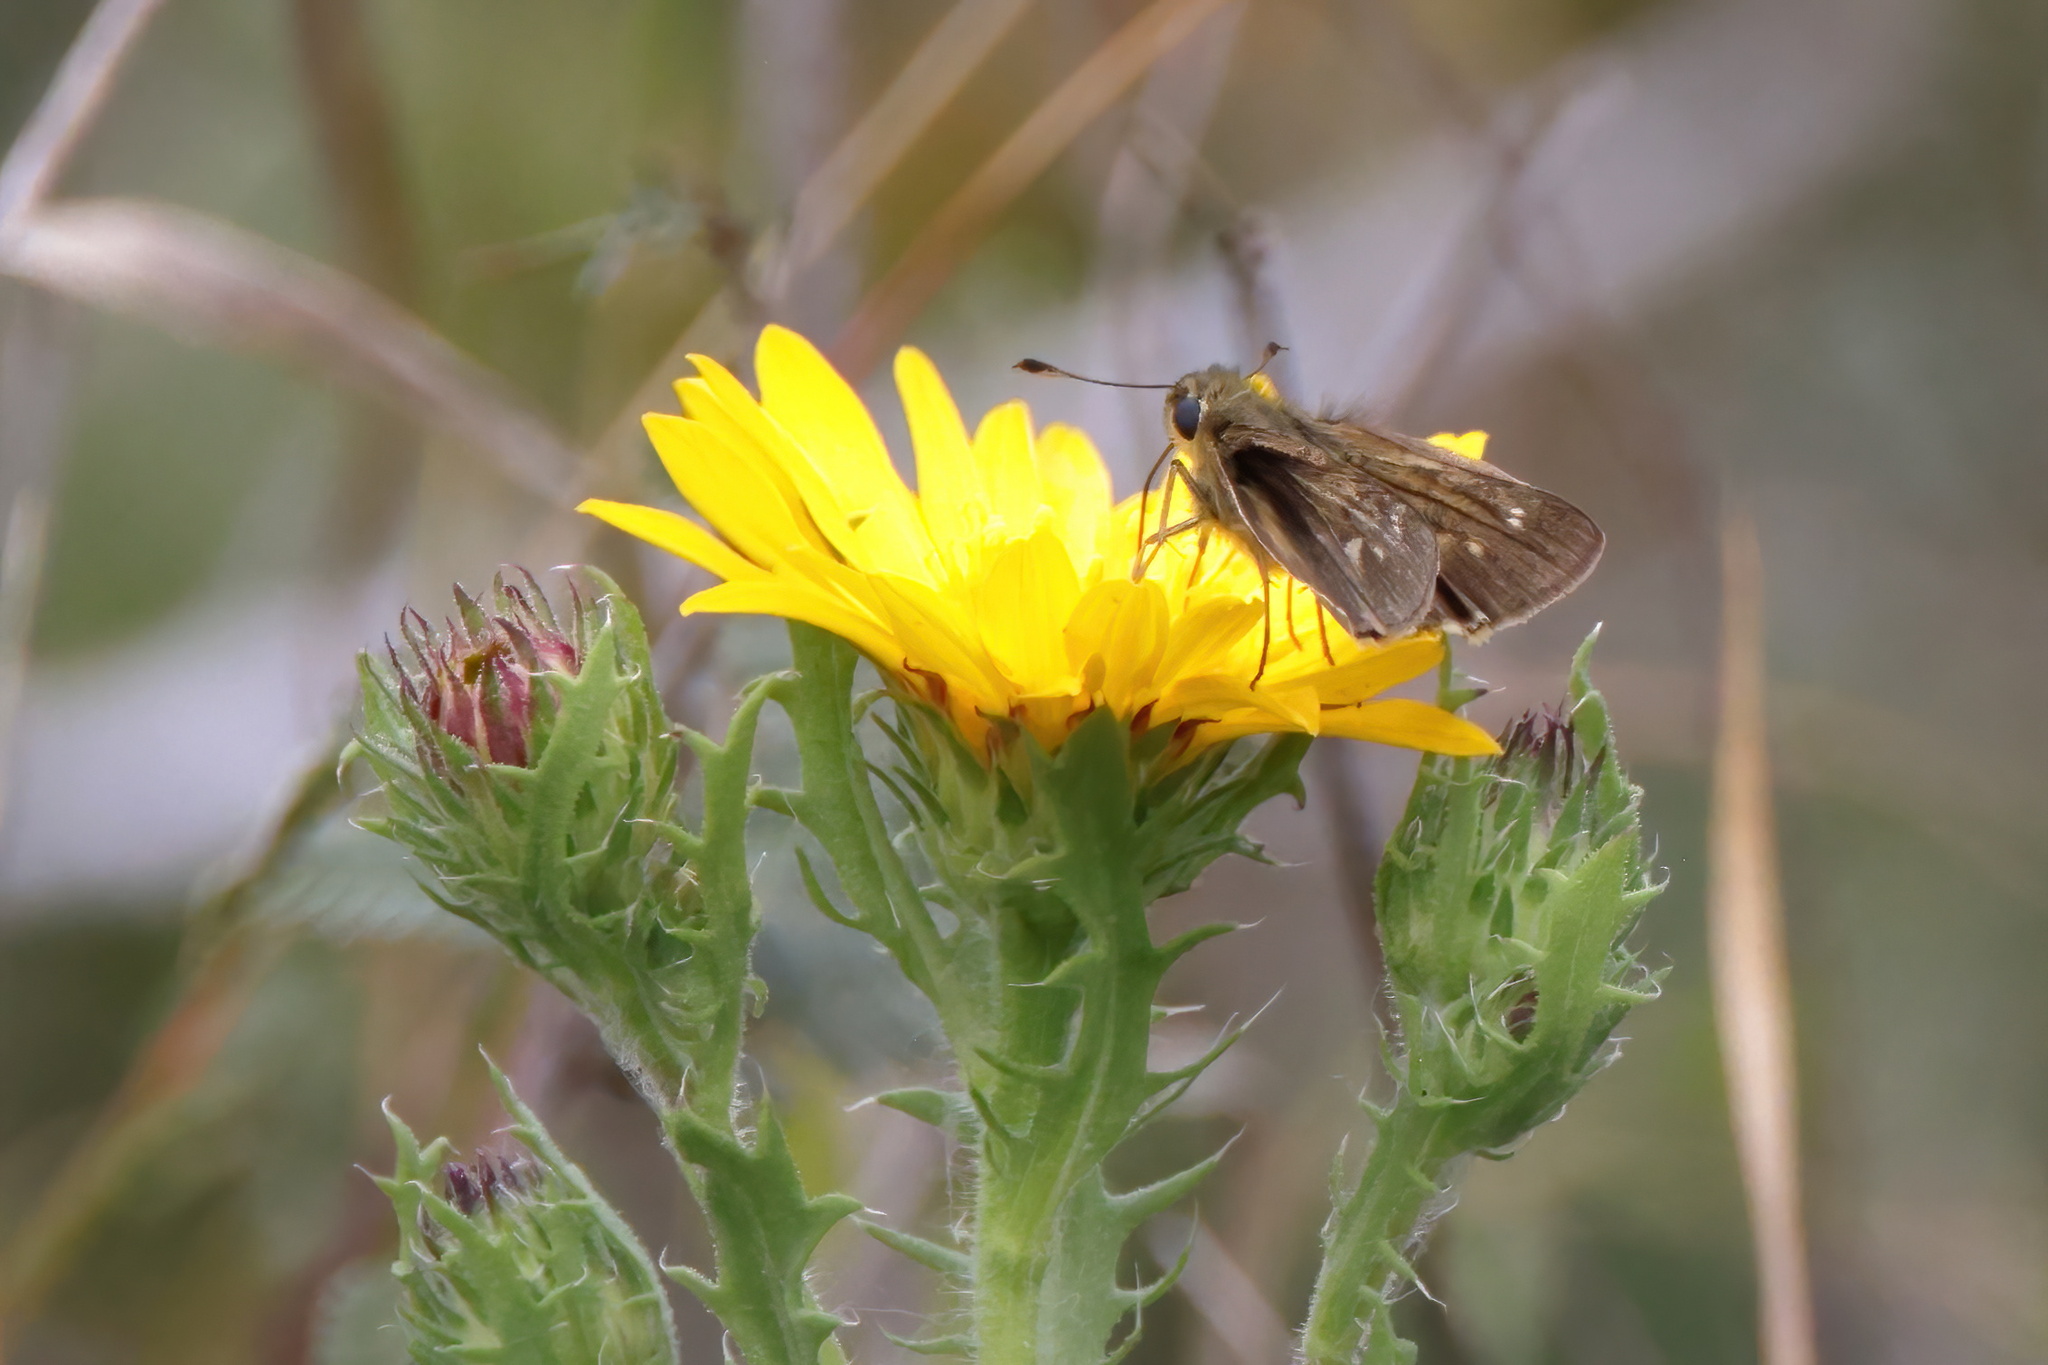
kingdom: Animalia
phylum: Arthropoda
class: Insecta
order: Lepidoptera
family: Hesperiidae
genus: Panoquina
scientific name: Panoquina panoquinoides
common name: Beach skipper
